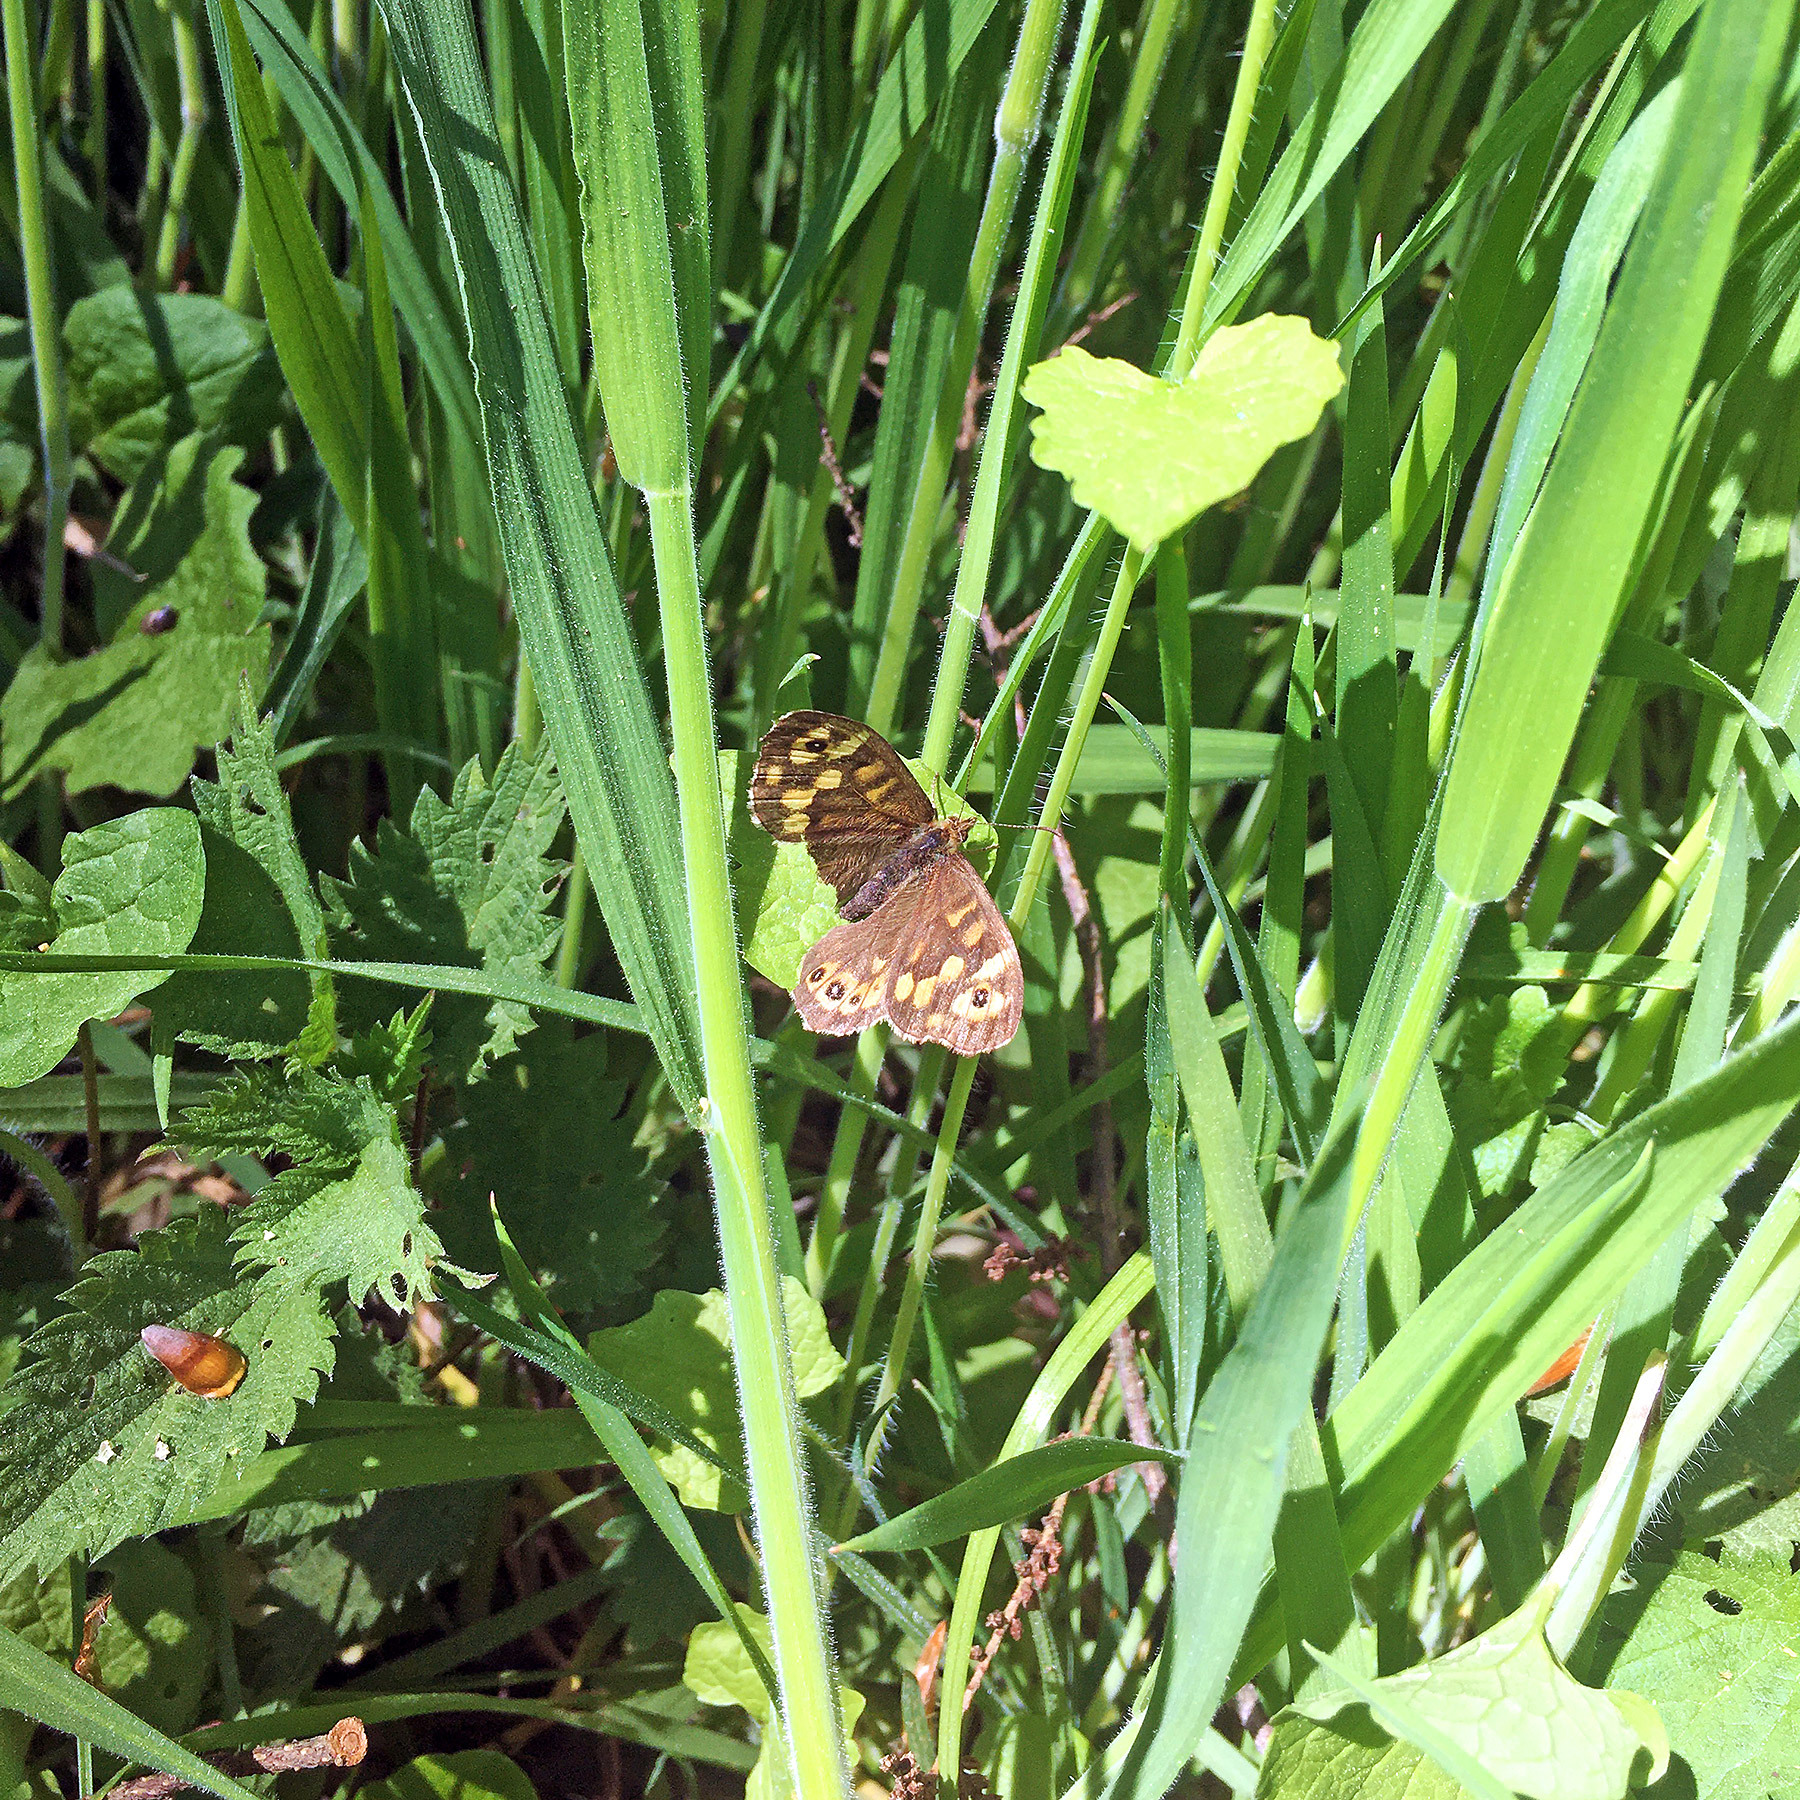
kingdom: Animalia
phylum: Arthropoda
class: Insecta
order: Lepidoptera
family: Nymphalidae
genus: Pararge
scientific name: Pararge aegeria
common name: Speckled wood
